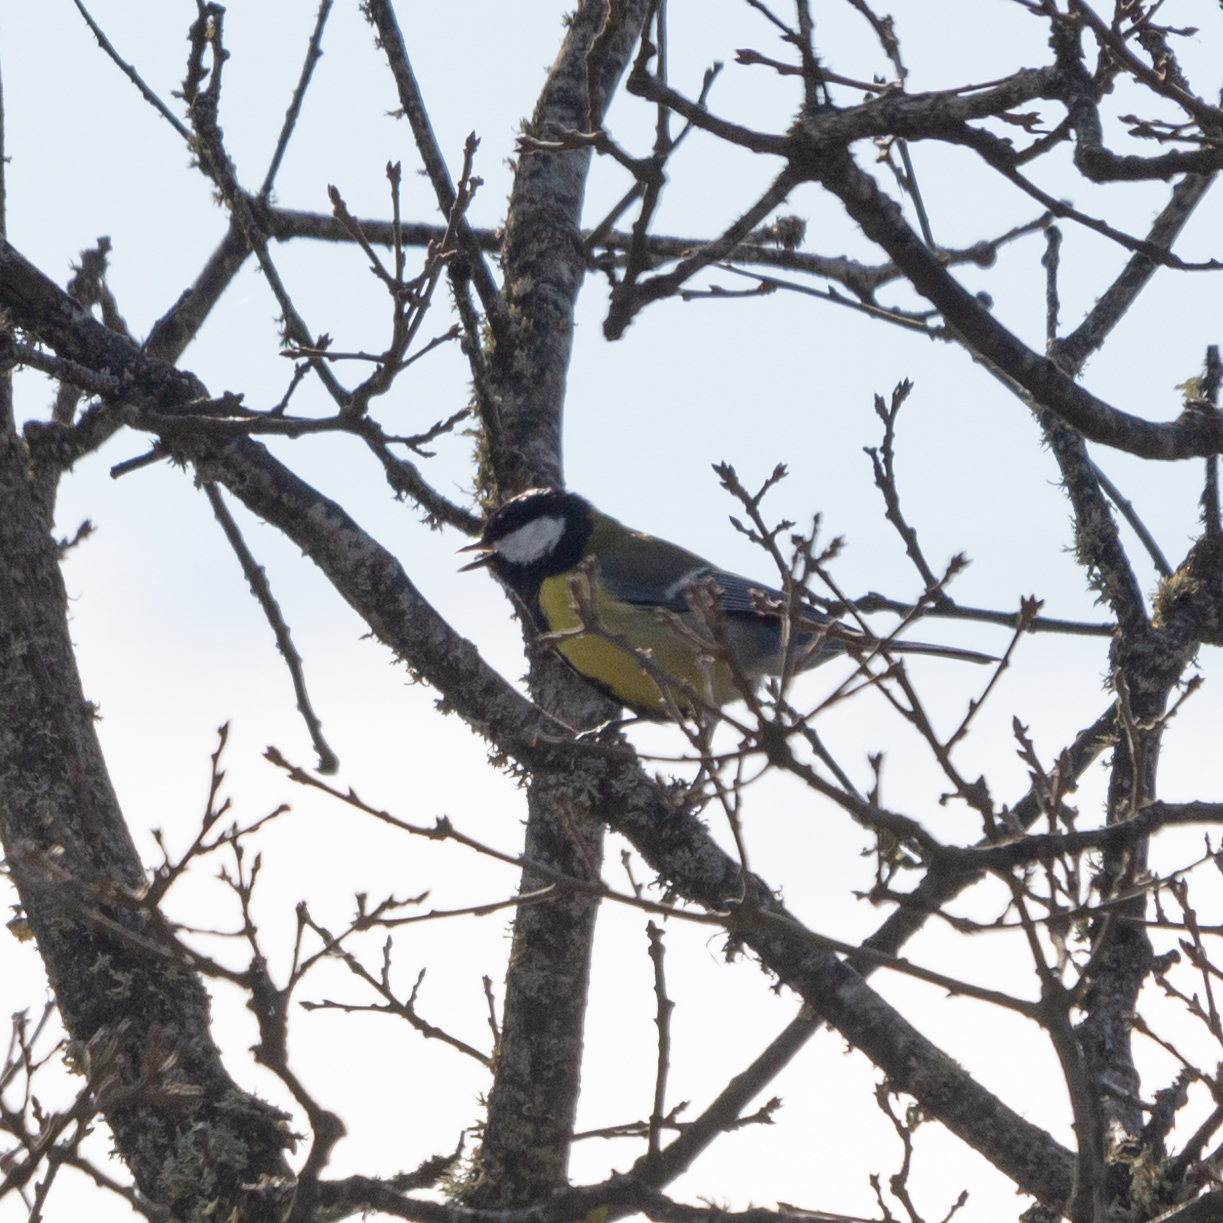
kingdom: Animalia
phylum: Chordata
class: Aves
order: Passeriformes
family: Paridae
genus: Parus
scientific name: Parus major
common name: Great tit
